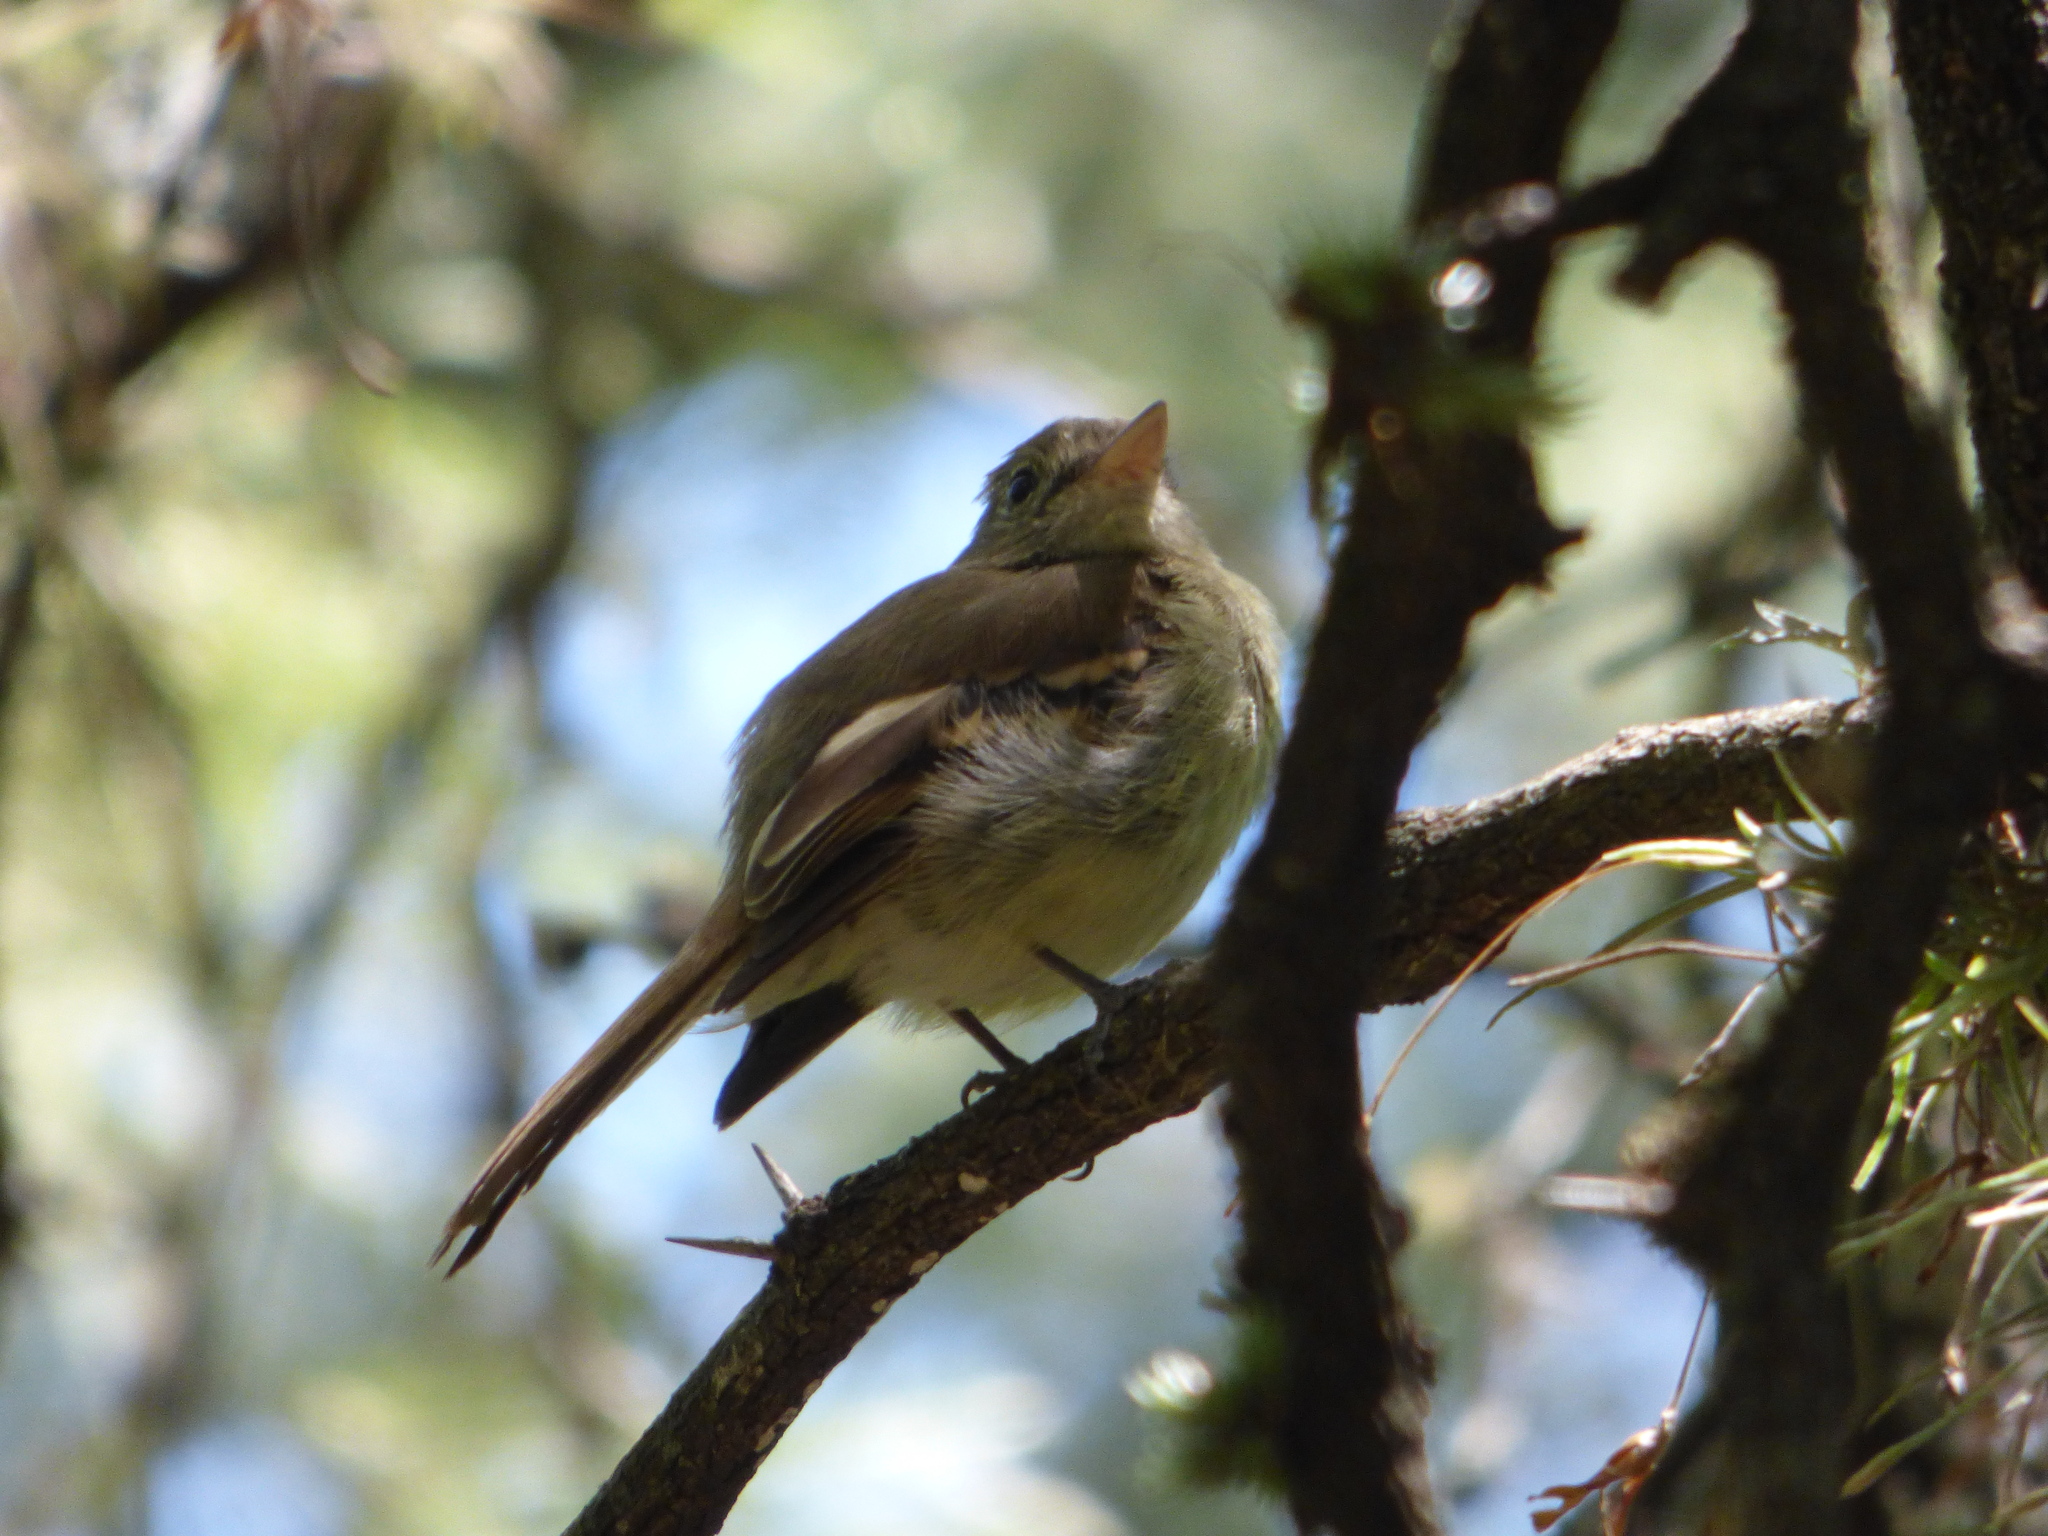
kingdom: Animalia
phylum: Chordata
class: Aves
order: Passeriformes
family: Tyrannidae
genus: Lathrotriccus
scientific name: Lathrotriccus euleri
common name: Euler's flycatcher
